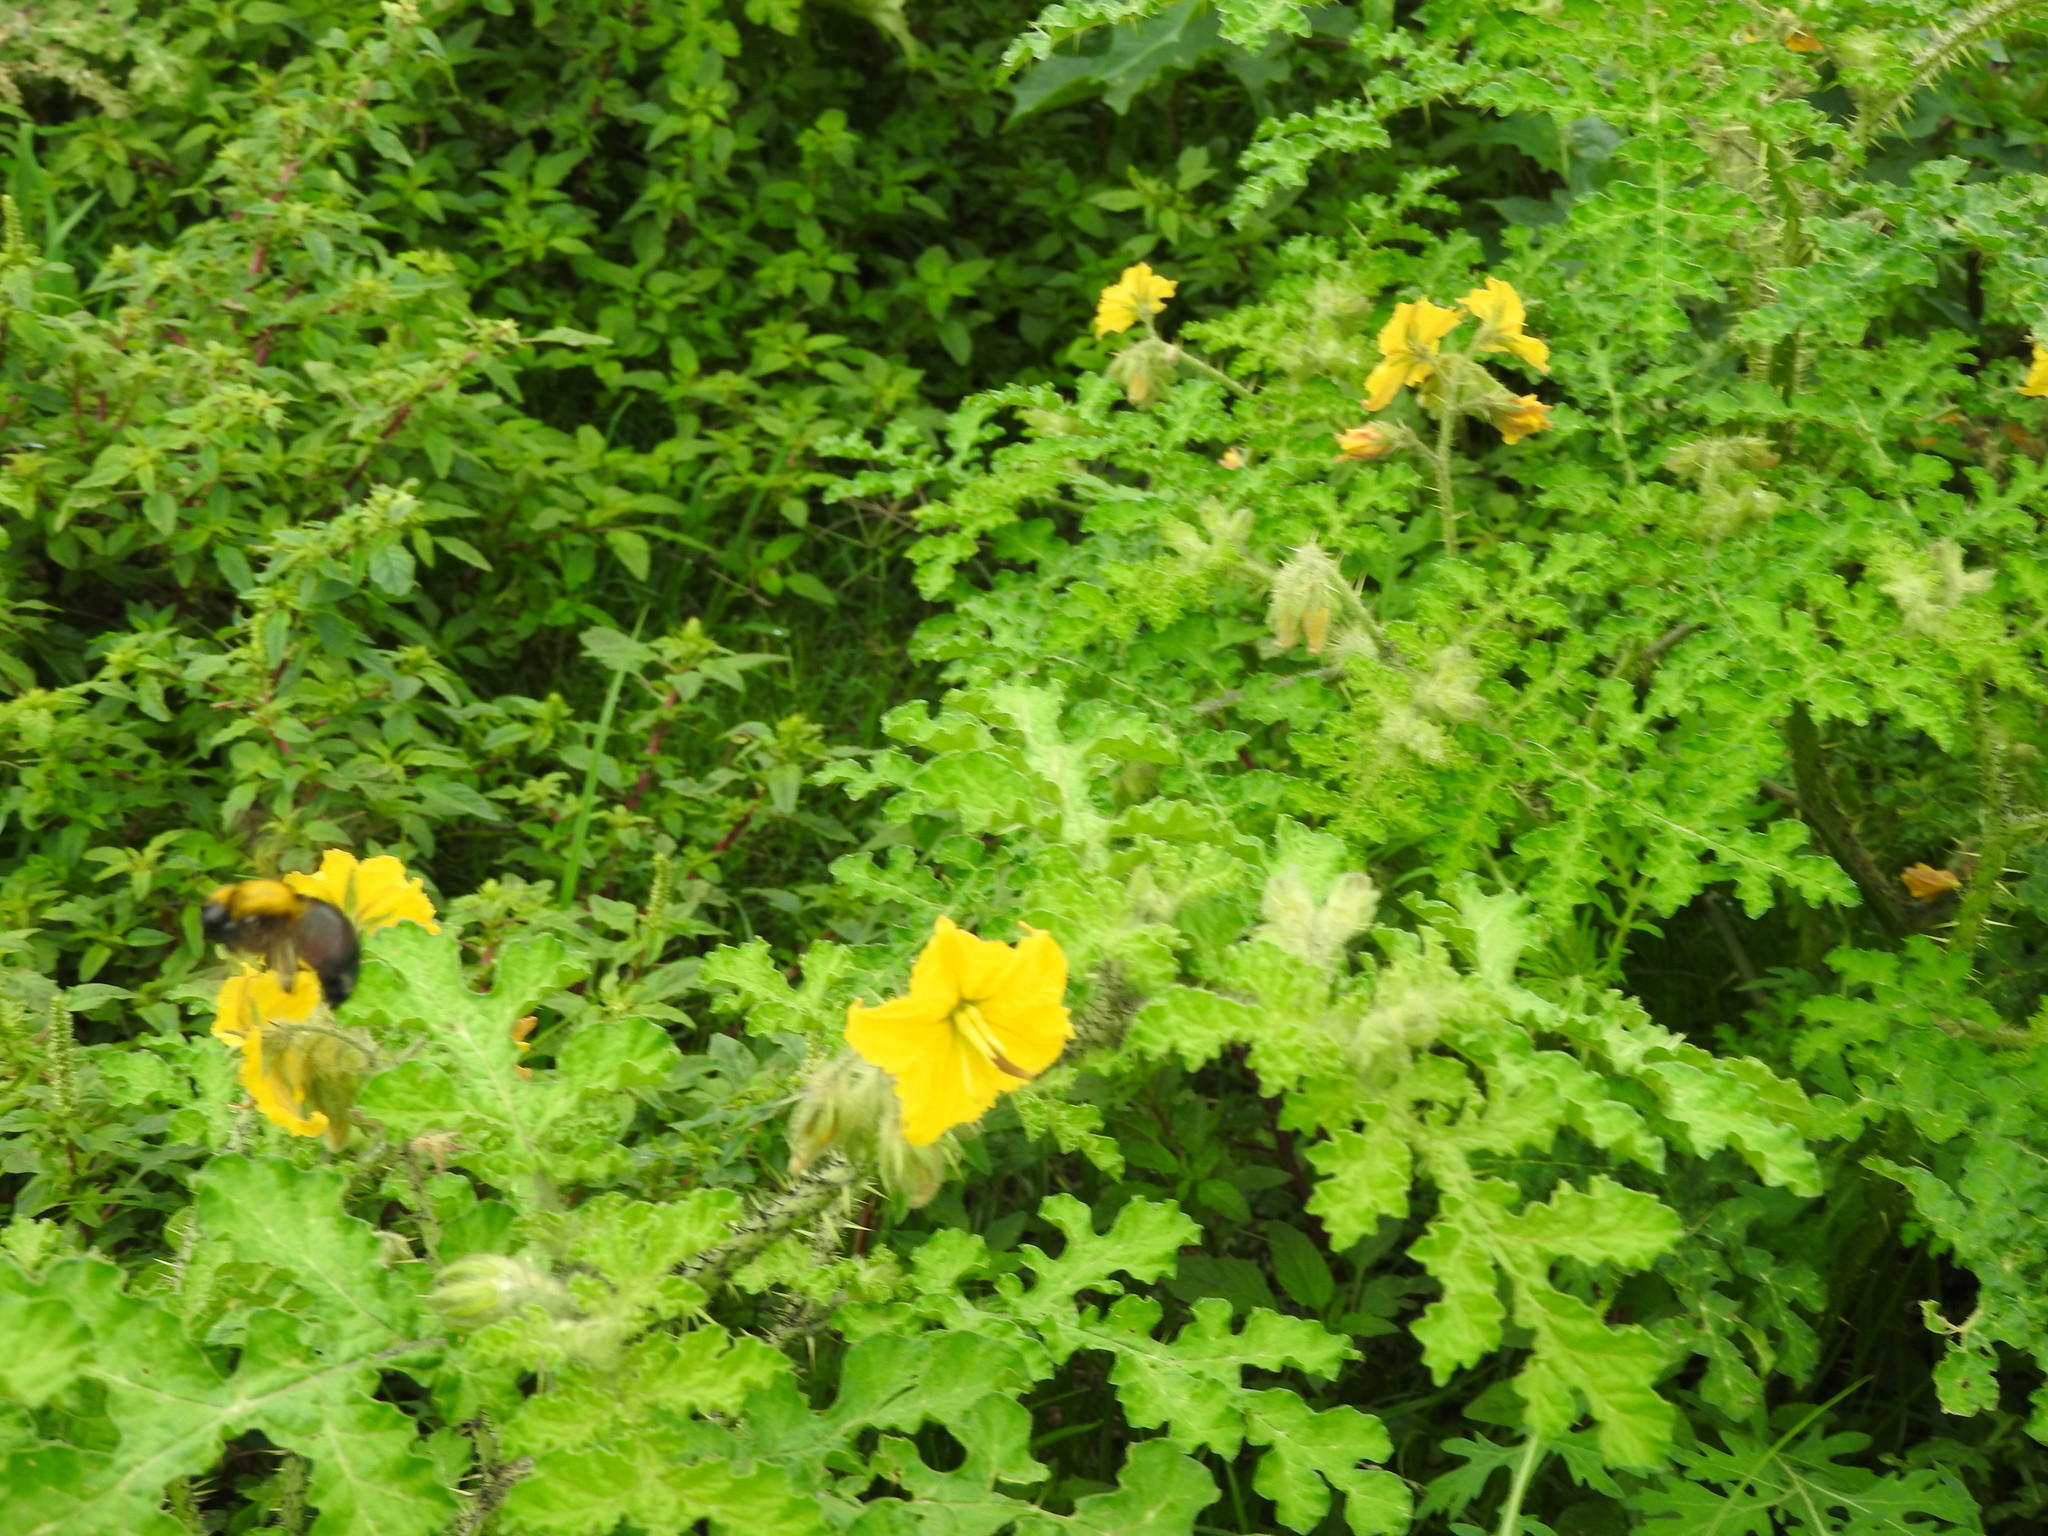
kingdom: Plantae
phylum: Tracheophyta
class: Magnoliopsida
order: Solanales
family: Solanaceae
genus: Solanum
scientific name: Solanum angustifolium
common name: Buffalobur nightshade
